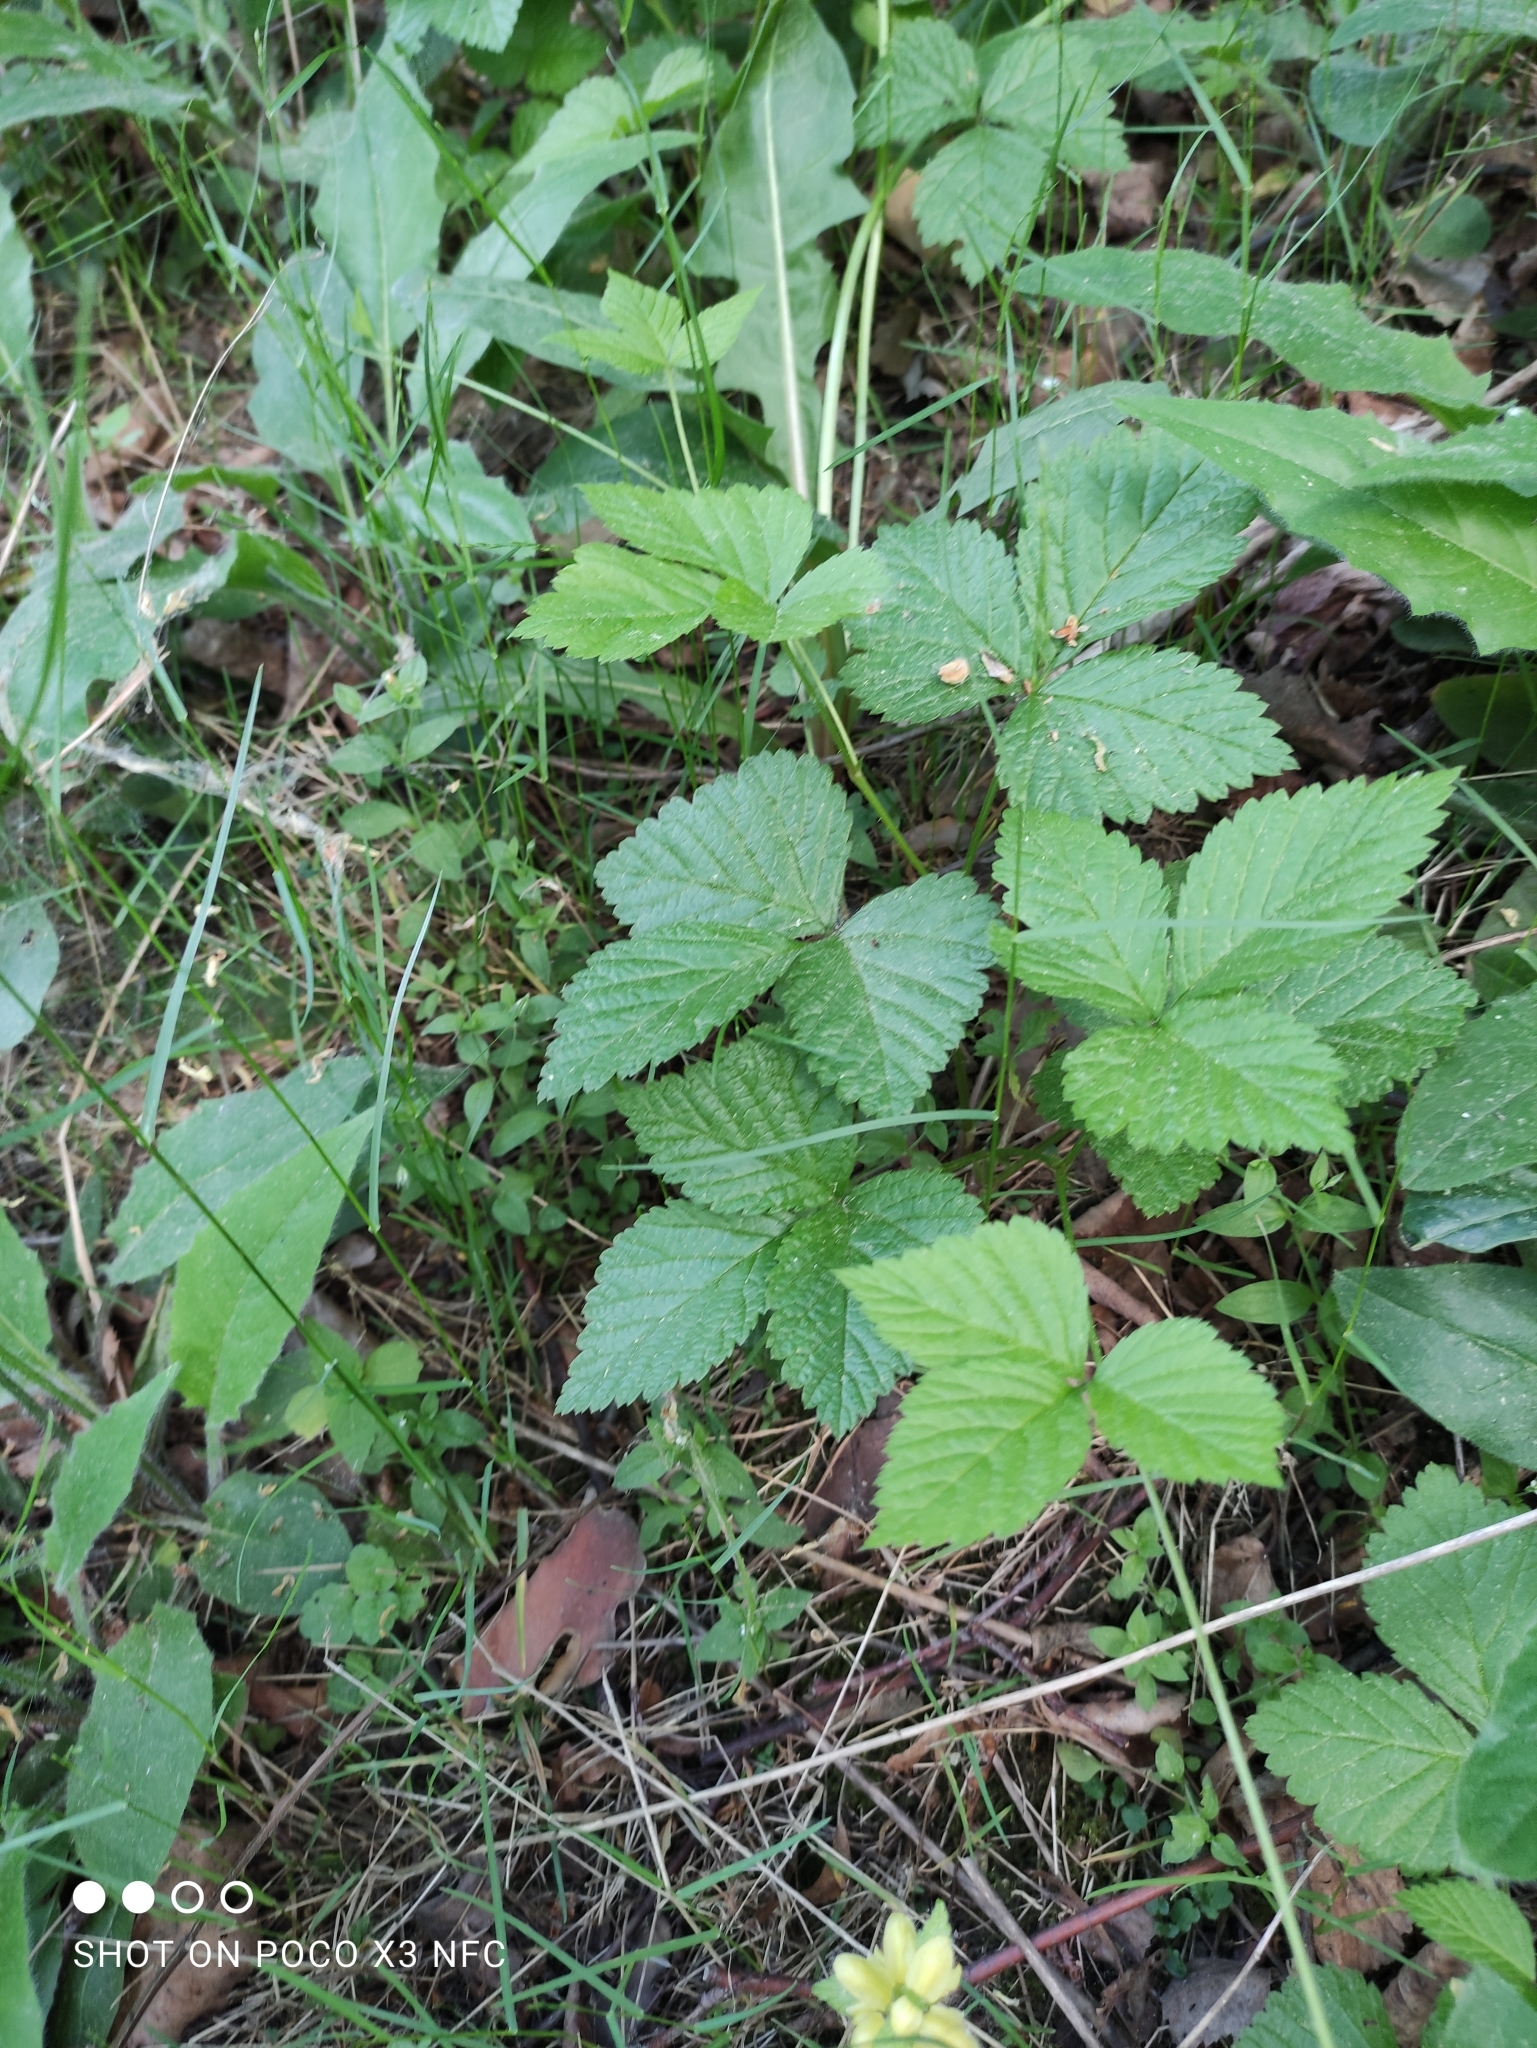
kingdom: Plantae
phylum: Tracheophyta
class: Magnoliopsida
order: Rosales
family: Rosaceae
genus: Rubus
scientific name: Rubus saxatilis
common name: Stone bramble
